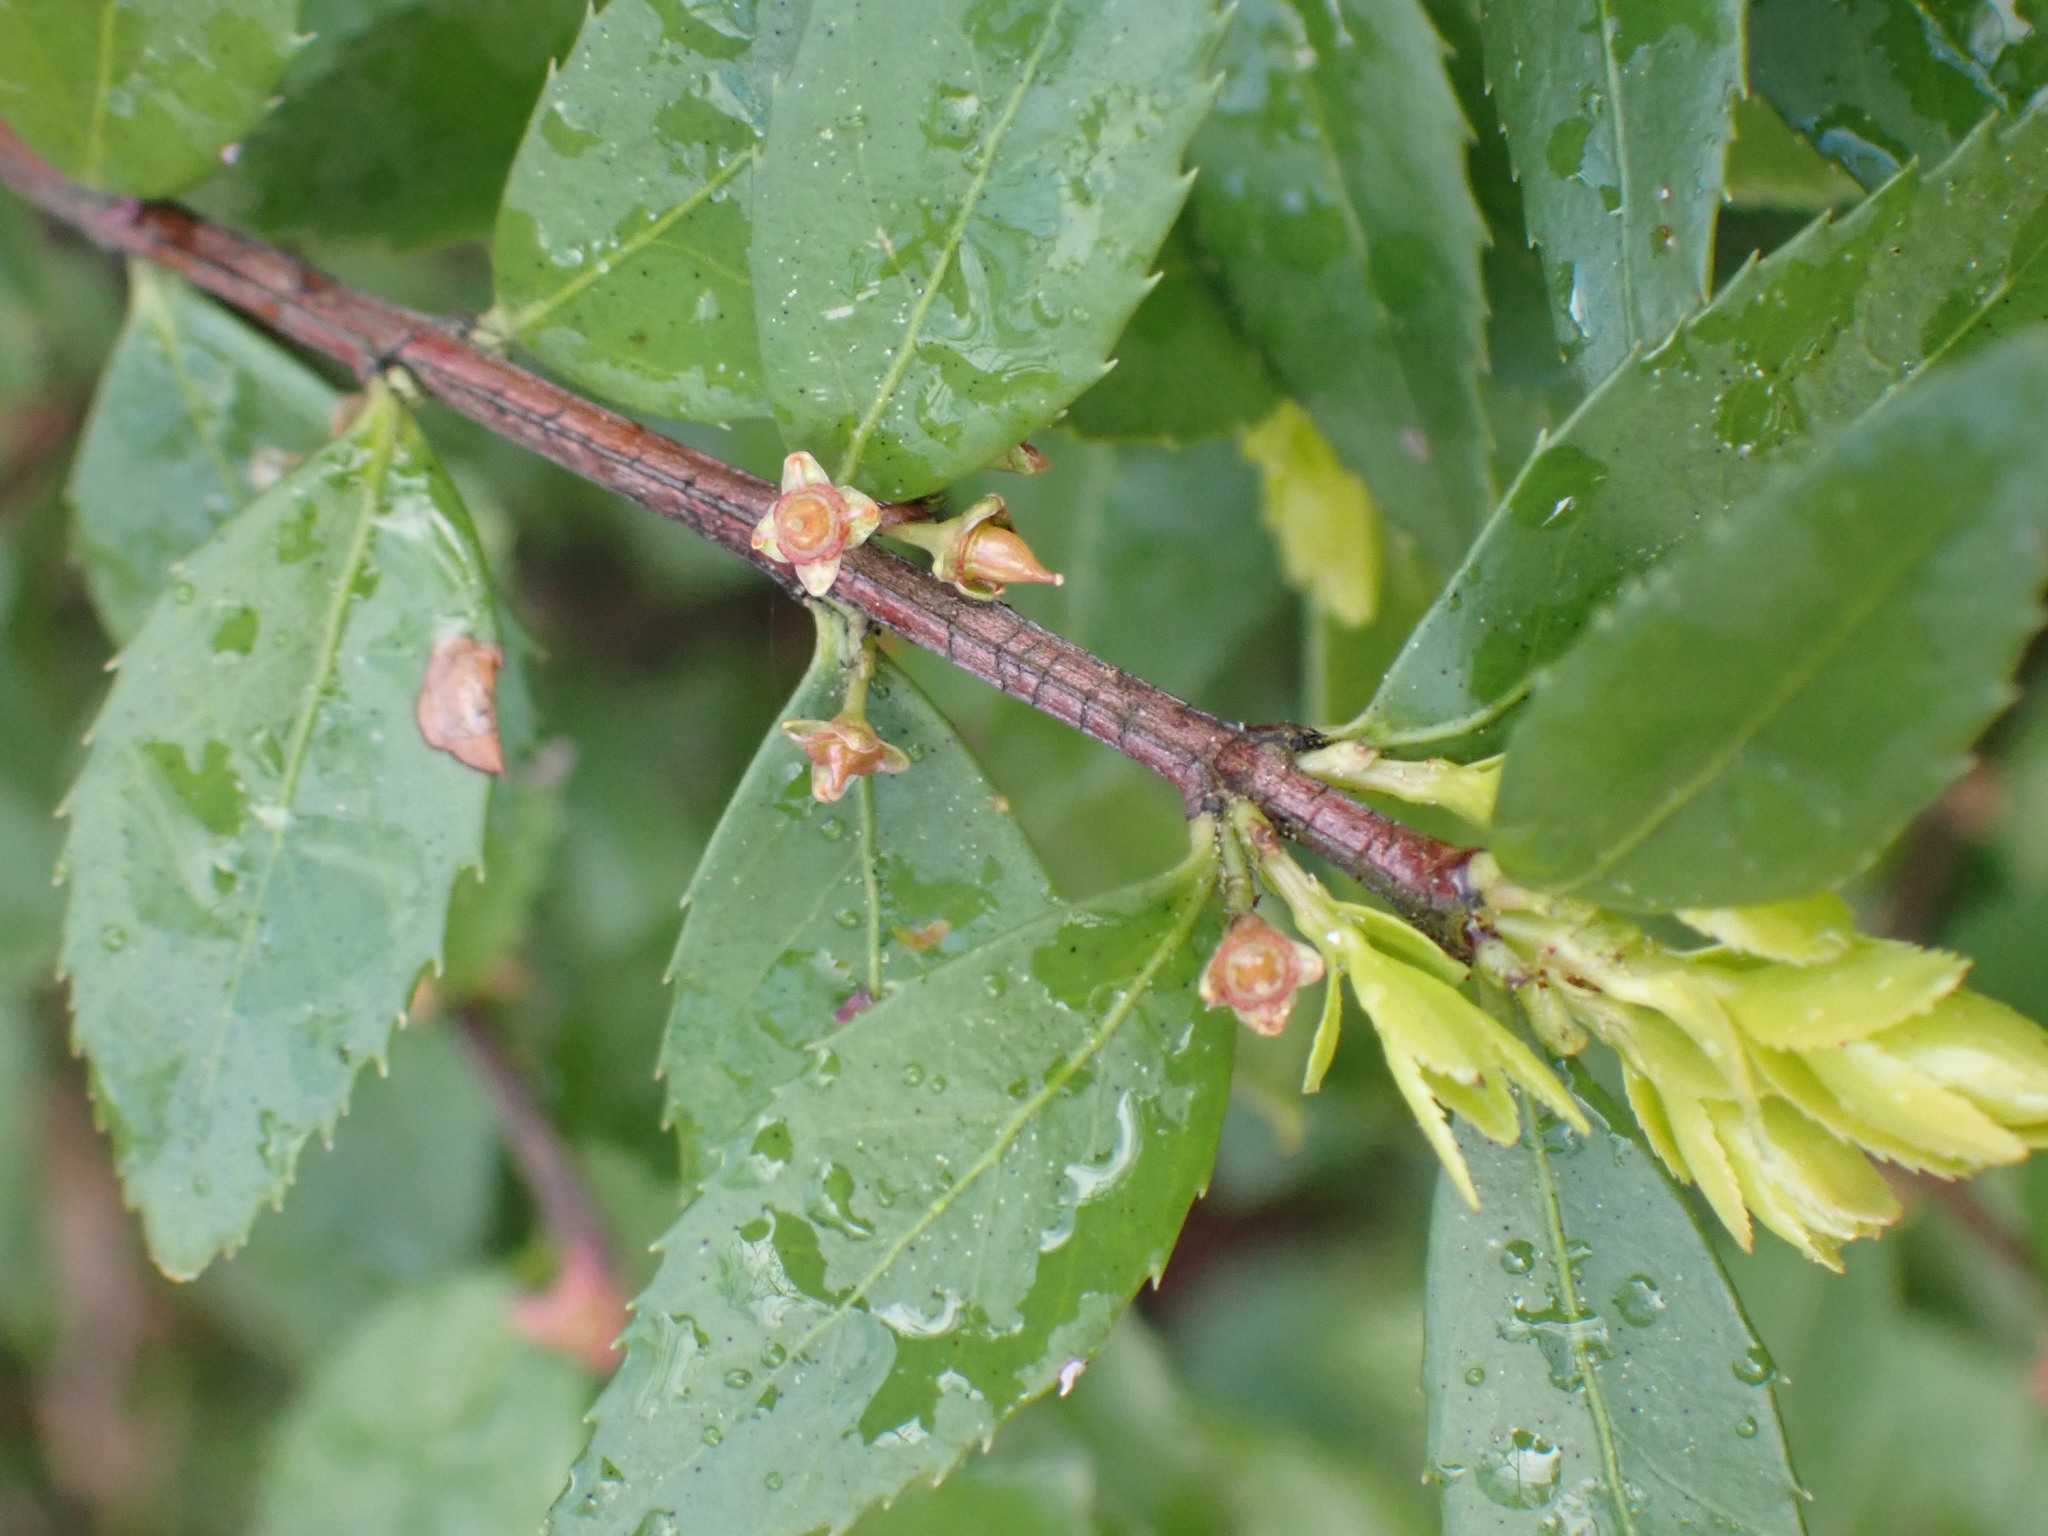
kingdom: Plantae
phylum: Tracheophyta
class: Magnoliopsida
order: Celastrales
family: Celastraceae
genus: Paxistima
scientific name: Paxistima myrsinites
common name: Mountain-lover
